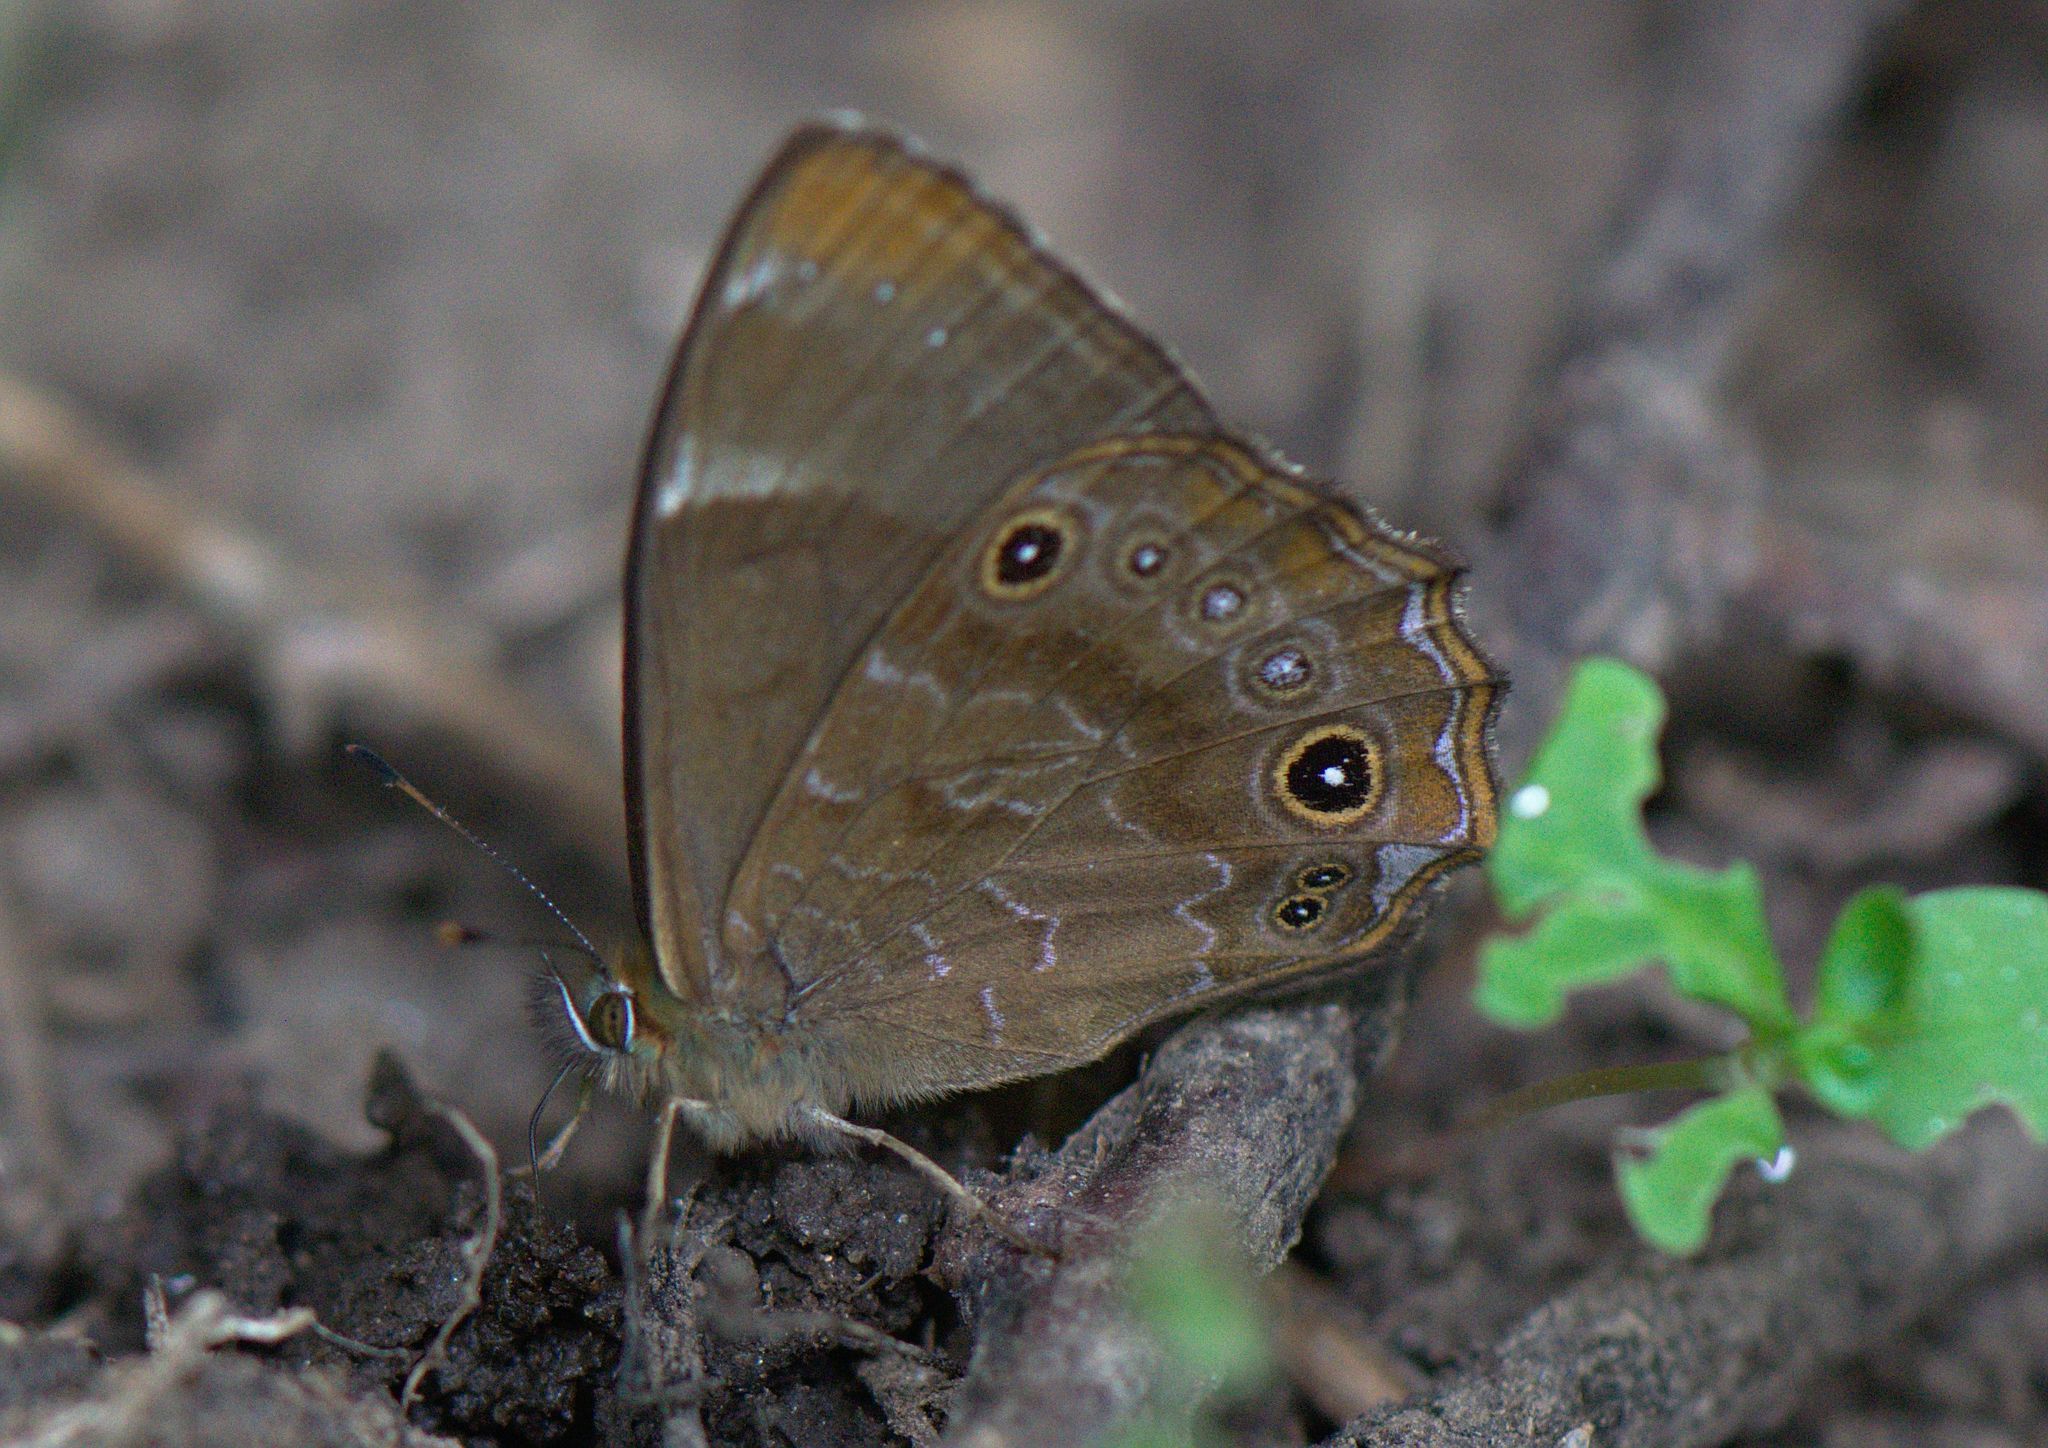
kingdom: Animalia
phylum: Arthropoda
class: Insecta
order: Lepidoptera
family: Nymphalidae
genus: Lethe
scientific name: Lethe sidonis
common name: Common woodbrown butterfly
